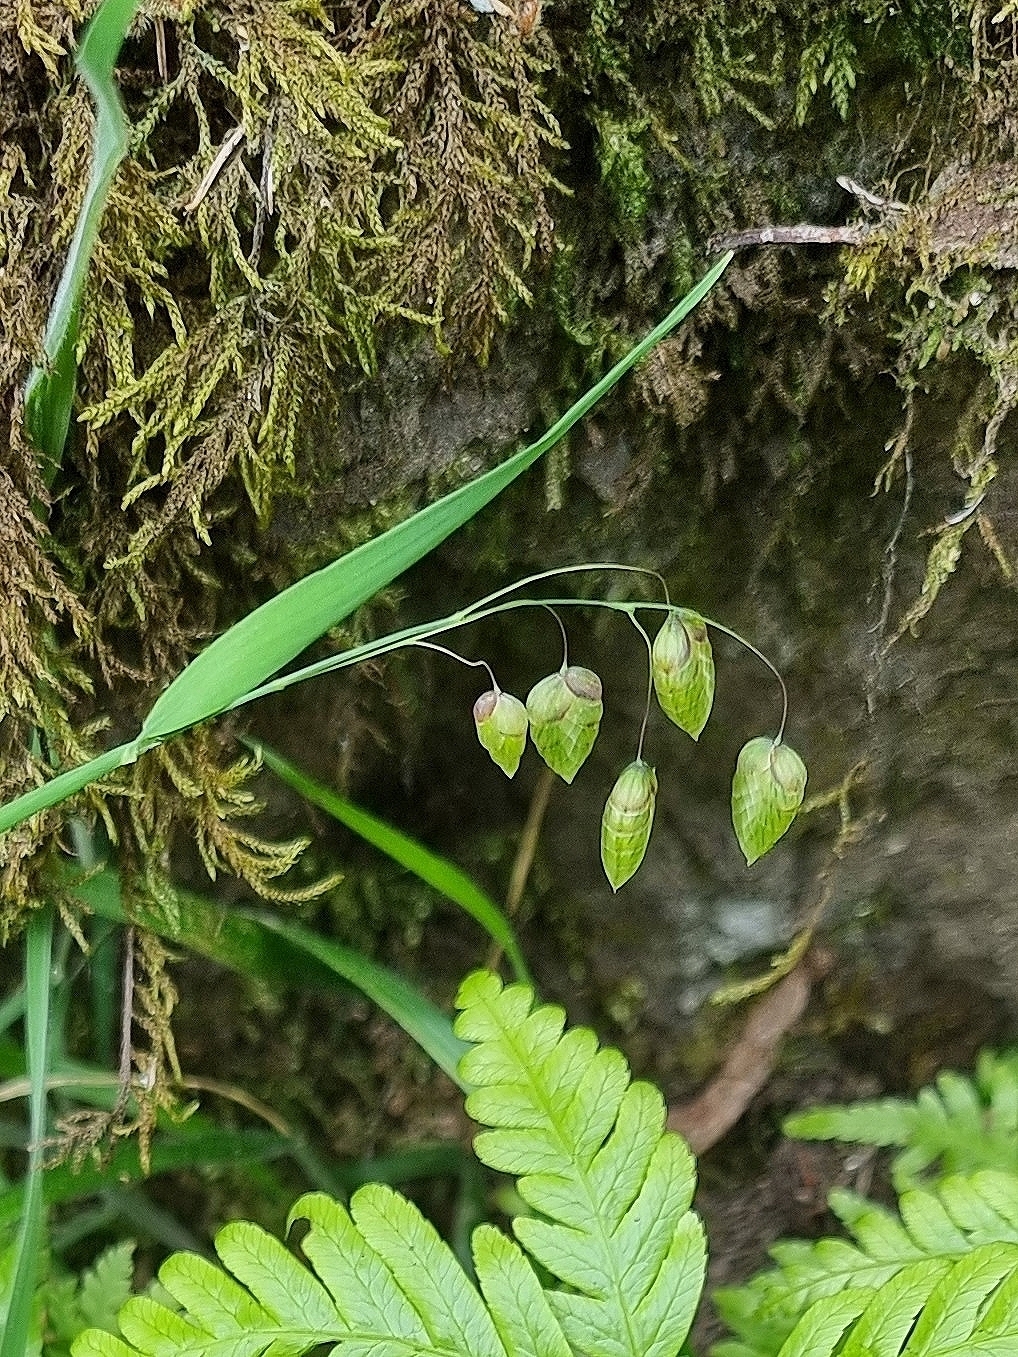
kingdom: Plantae
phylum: Tracheophyta
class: Liliopsida
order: Poales
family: Poaceae
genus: Briza
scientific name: Briza maxima
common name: Big quakinggrass
